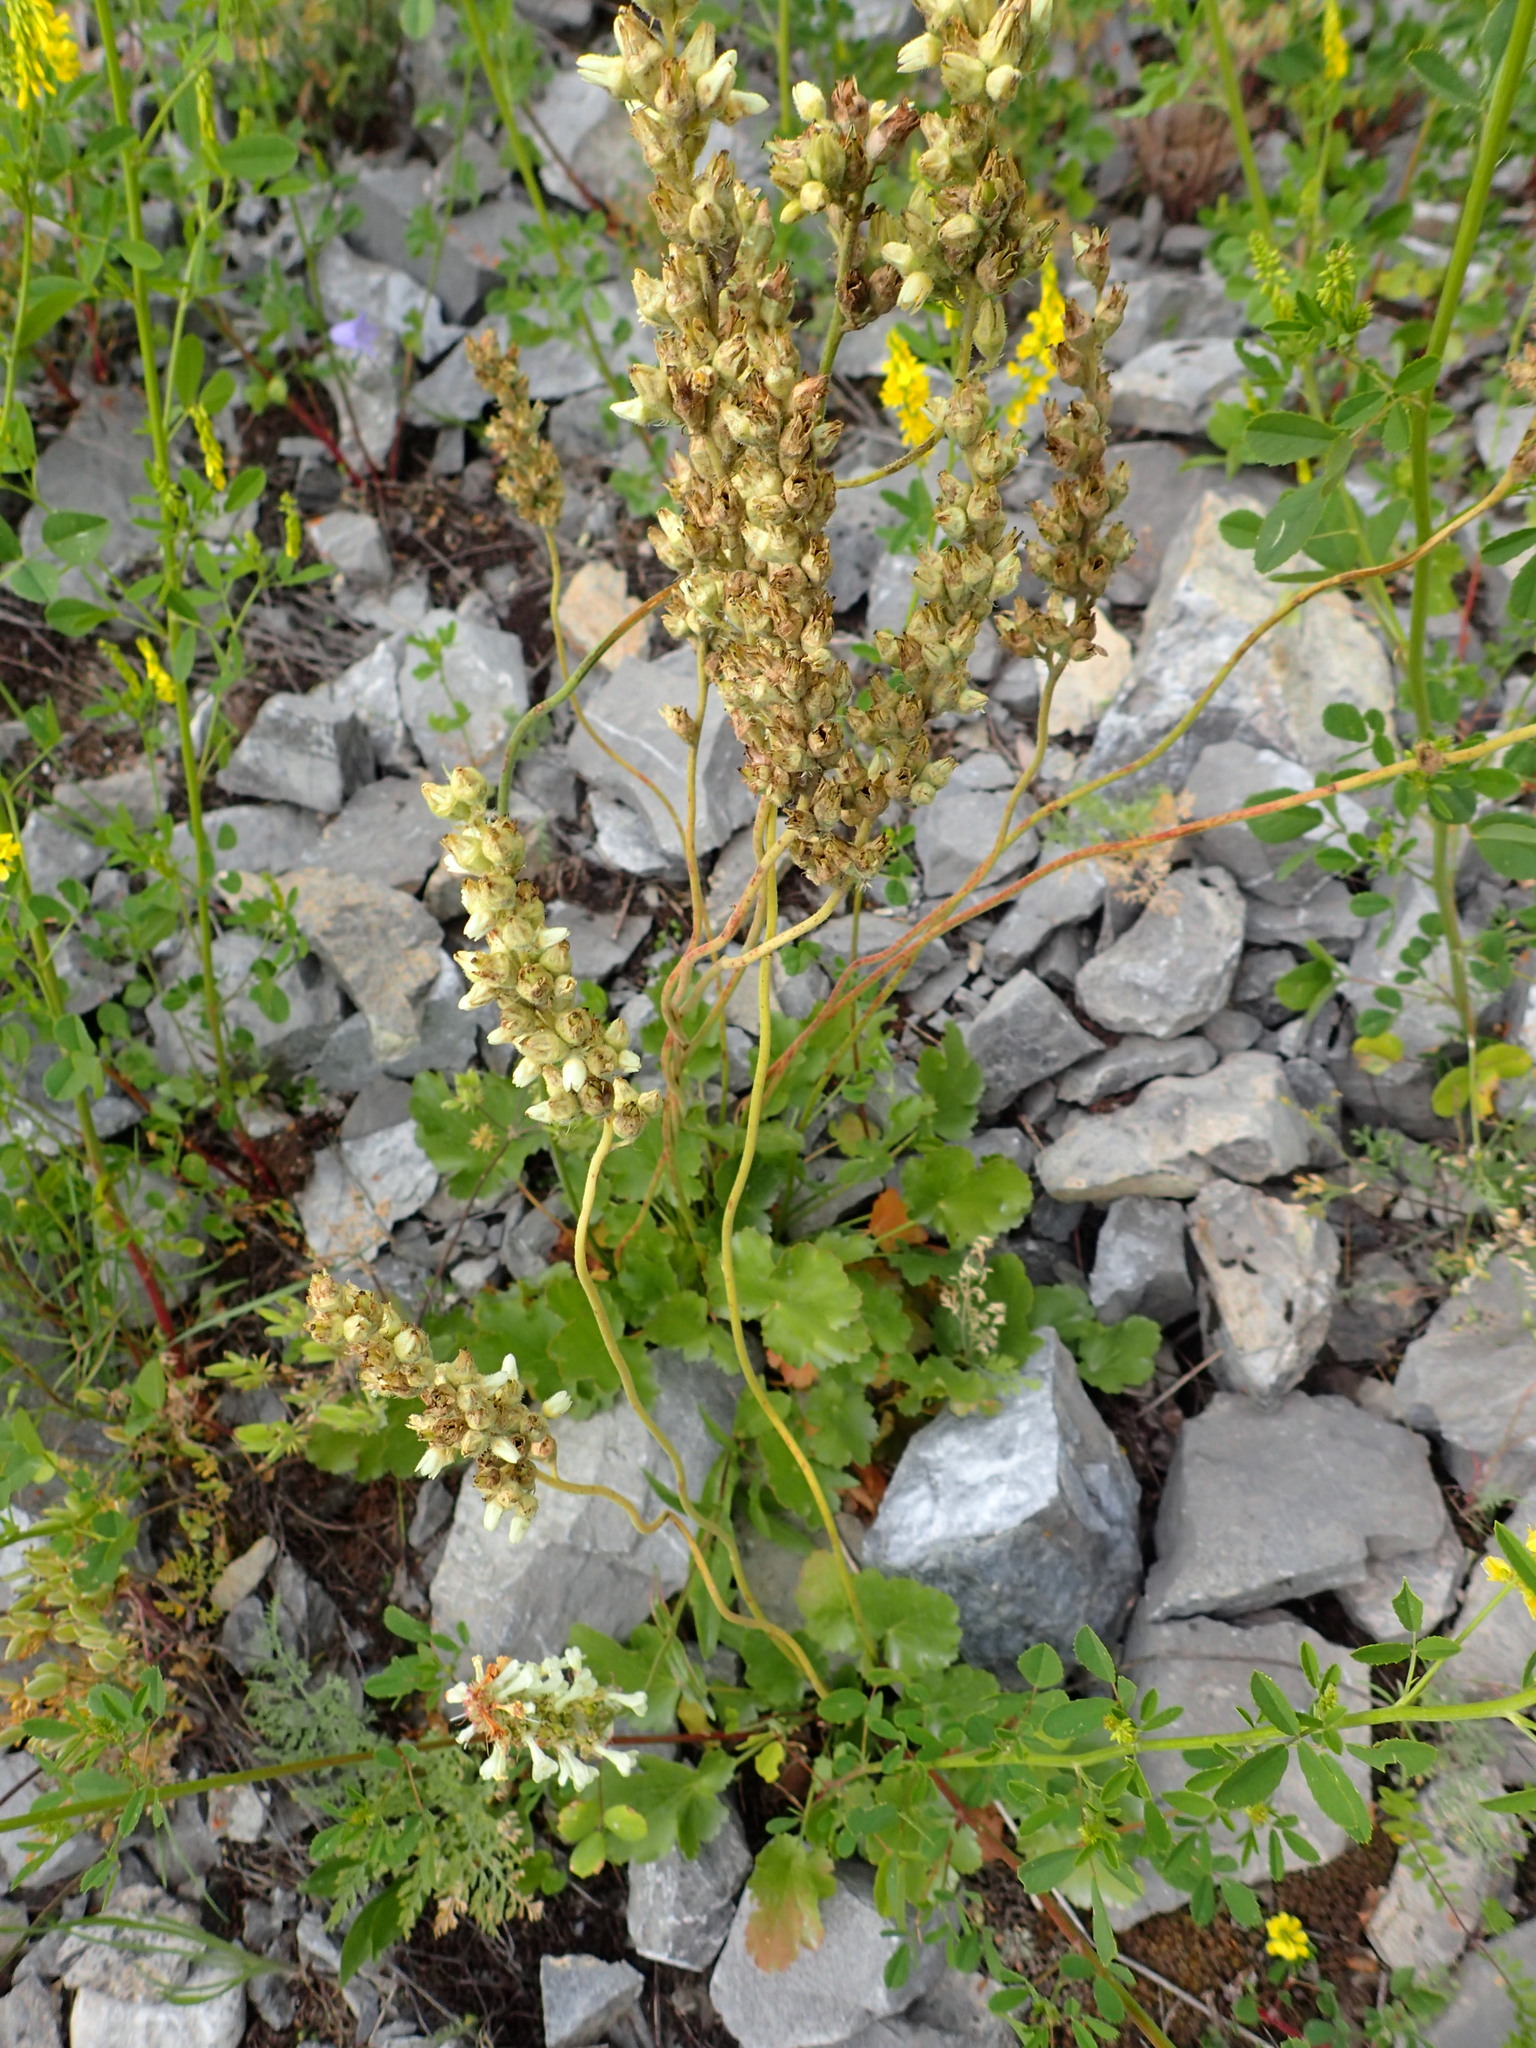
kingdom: Plantae
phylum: Tracheophyta
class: Magnoliopsida
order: Saxifragales
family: Saxifragaceae
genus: Heuchera
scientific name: Heuchera cylindrica
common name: Mat alumroot
